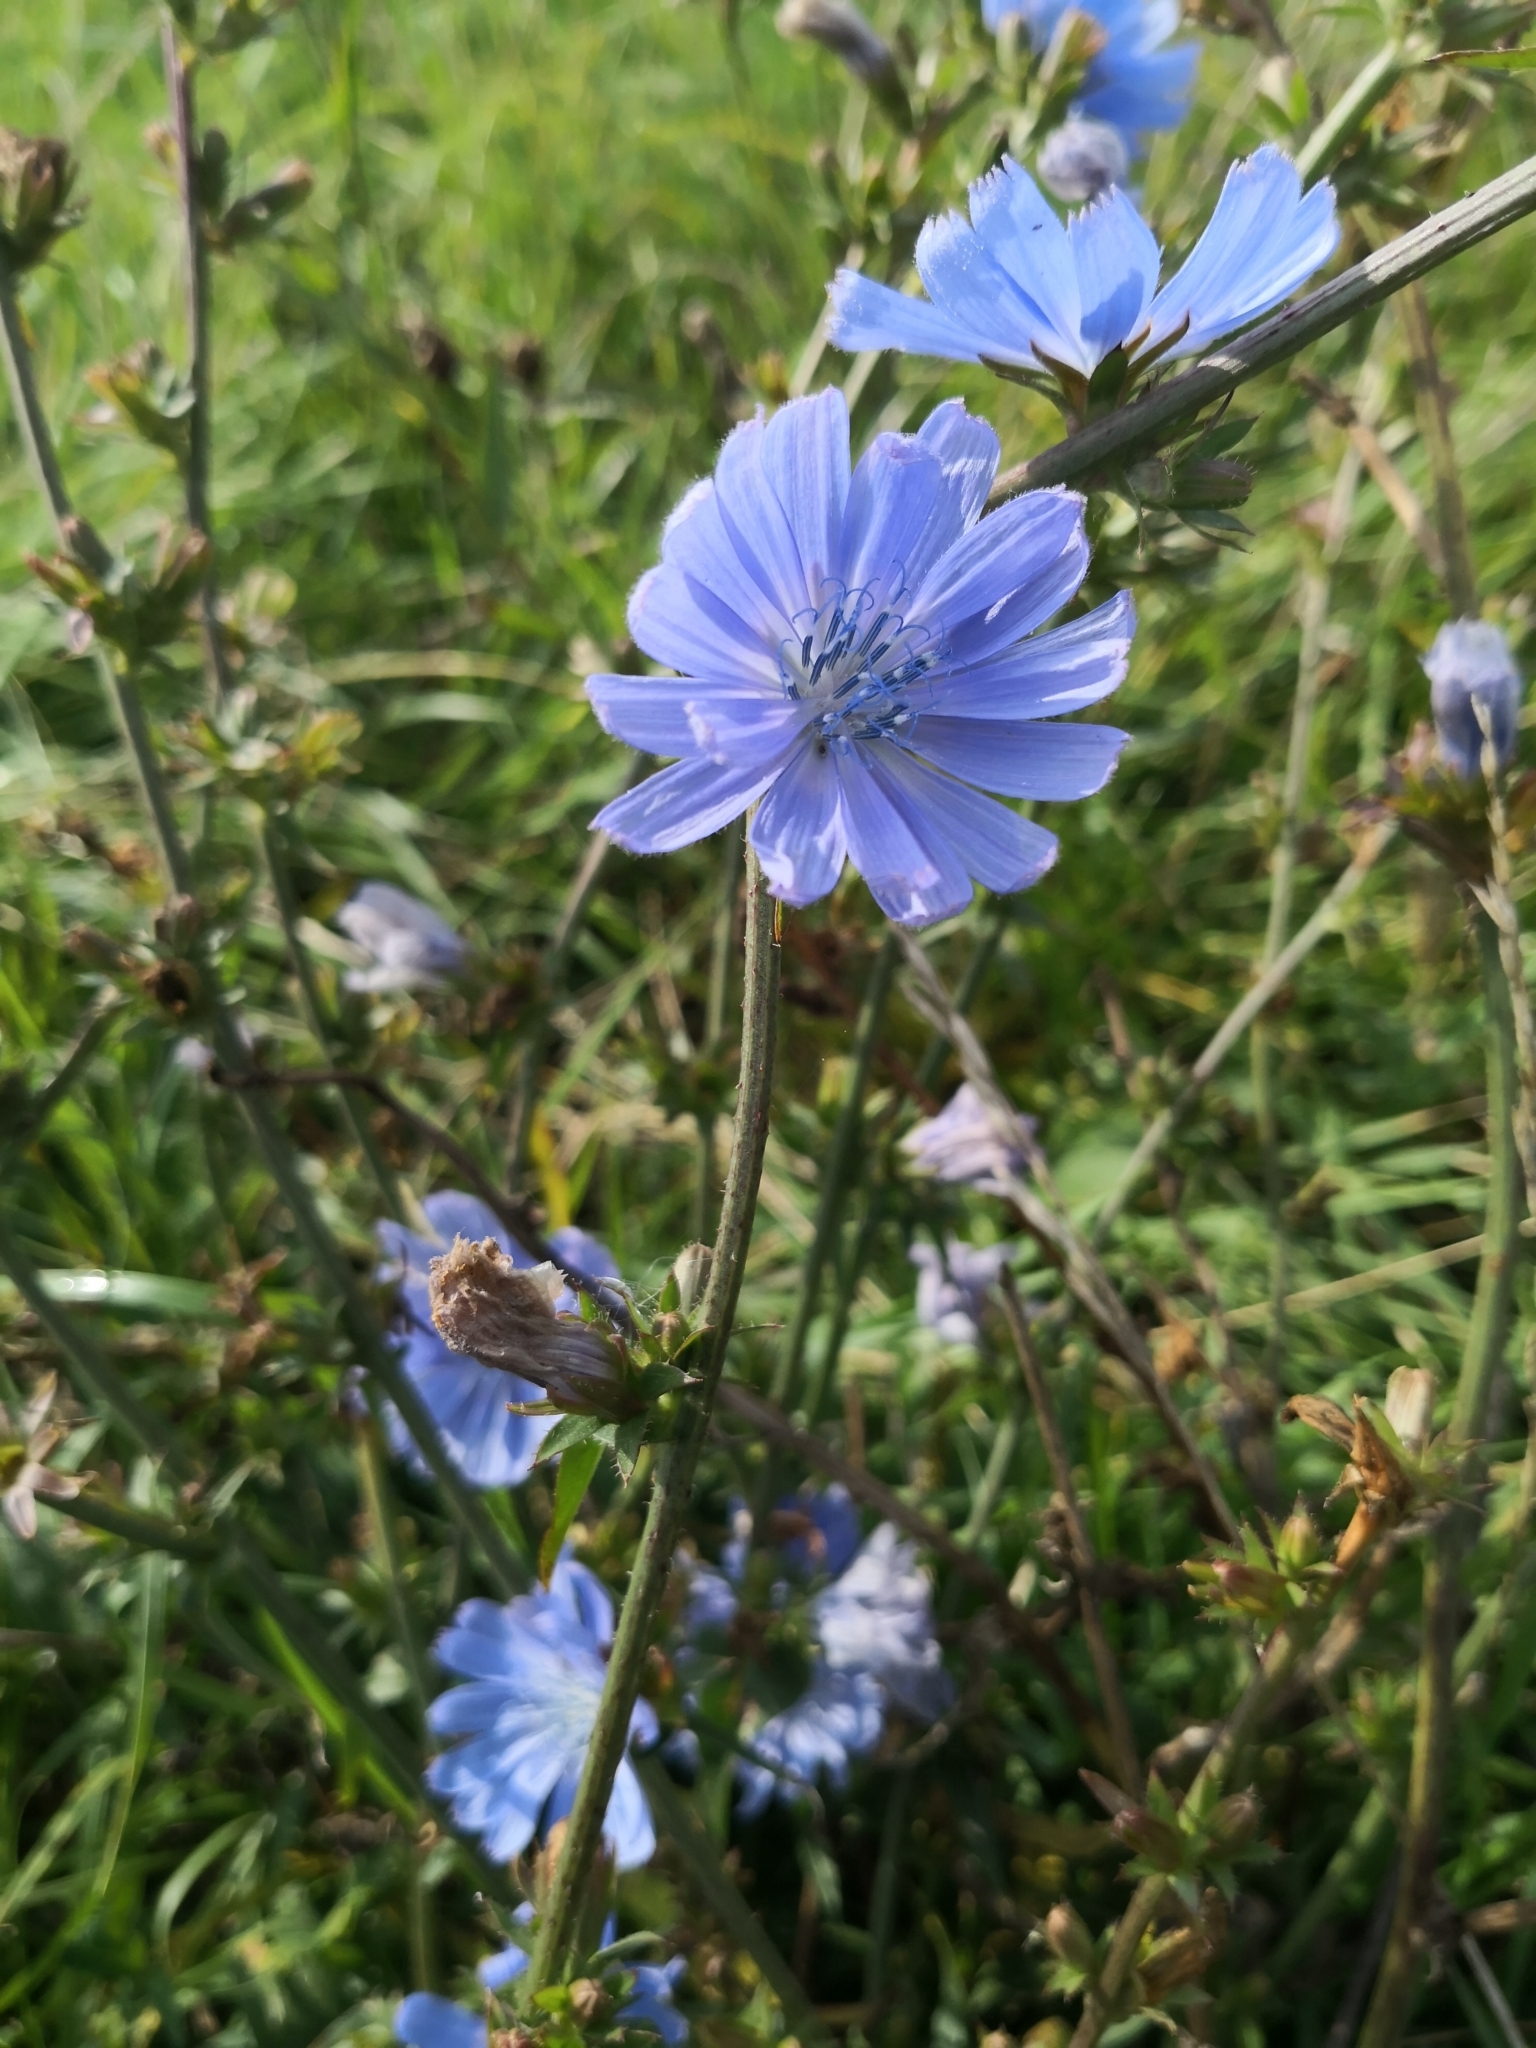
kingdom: Plantae
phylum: Tracheophyta
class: Magnoliopsida
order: Asterales
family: Asteraceae
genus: Cichorium
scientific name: Cichorium intybus
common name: Chicory
